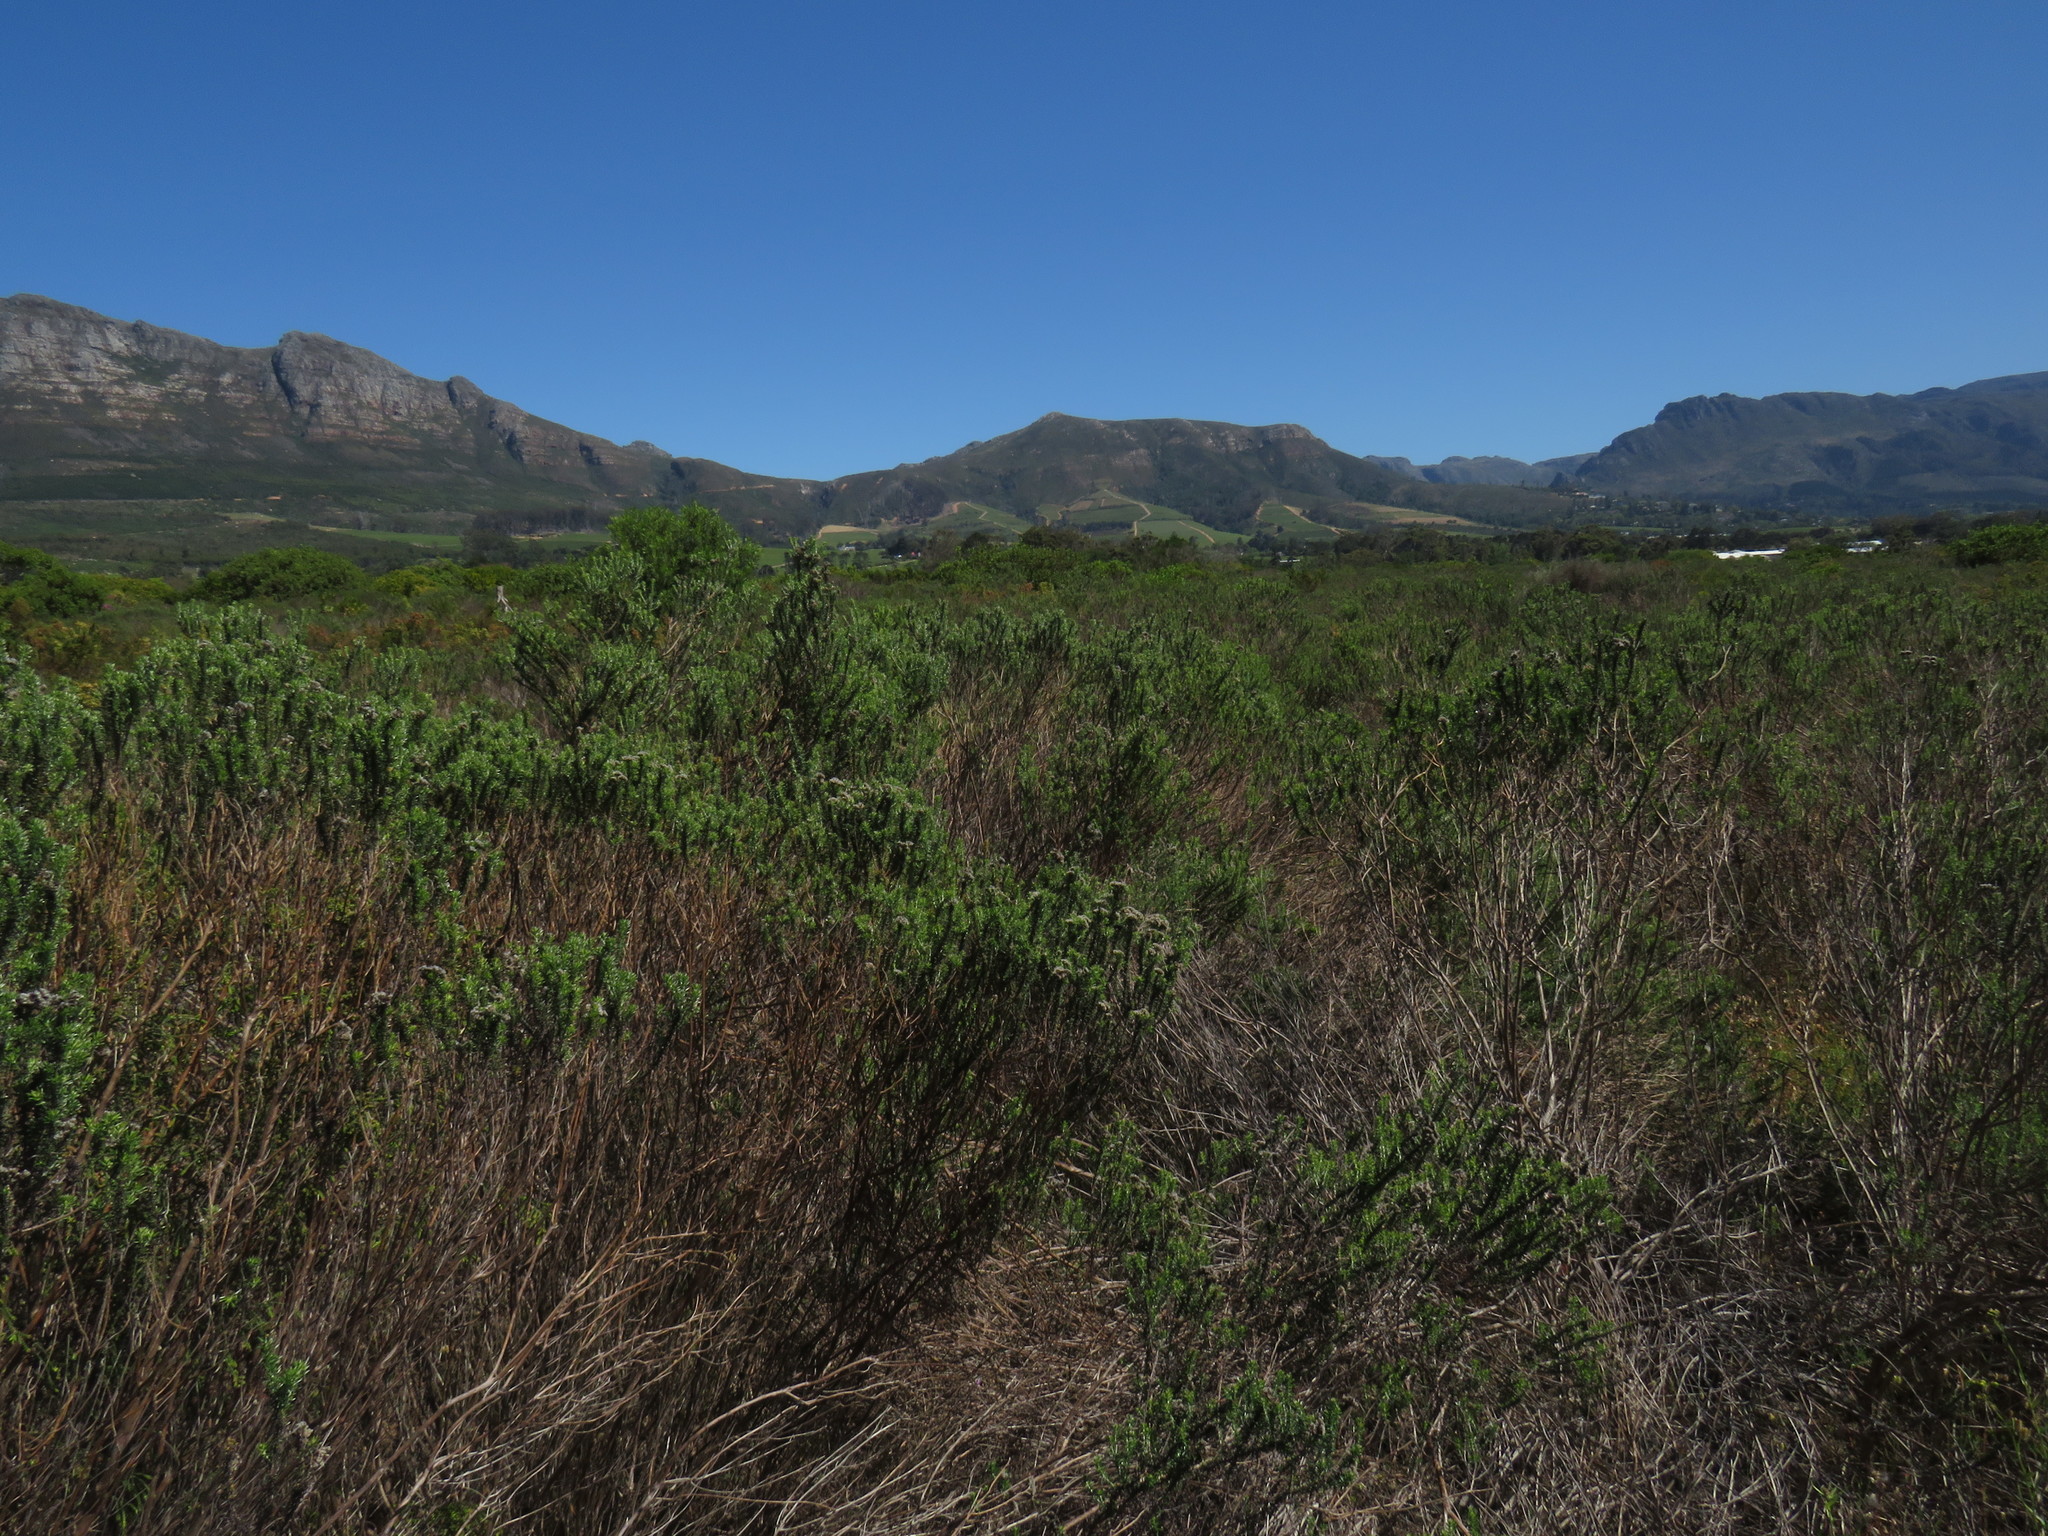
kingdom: Plantae
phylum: Tracheophyta
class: Magnoliopsida
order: Asterales
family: Asteraceae
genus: Metalasia
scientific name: Metalasia densa
